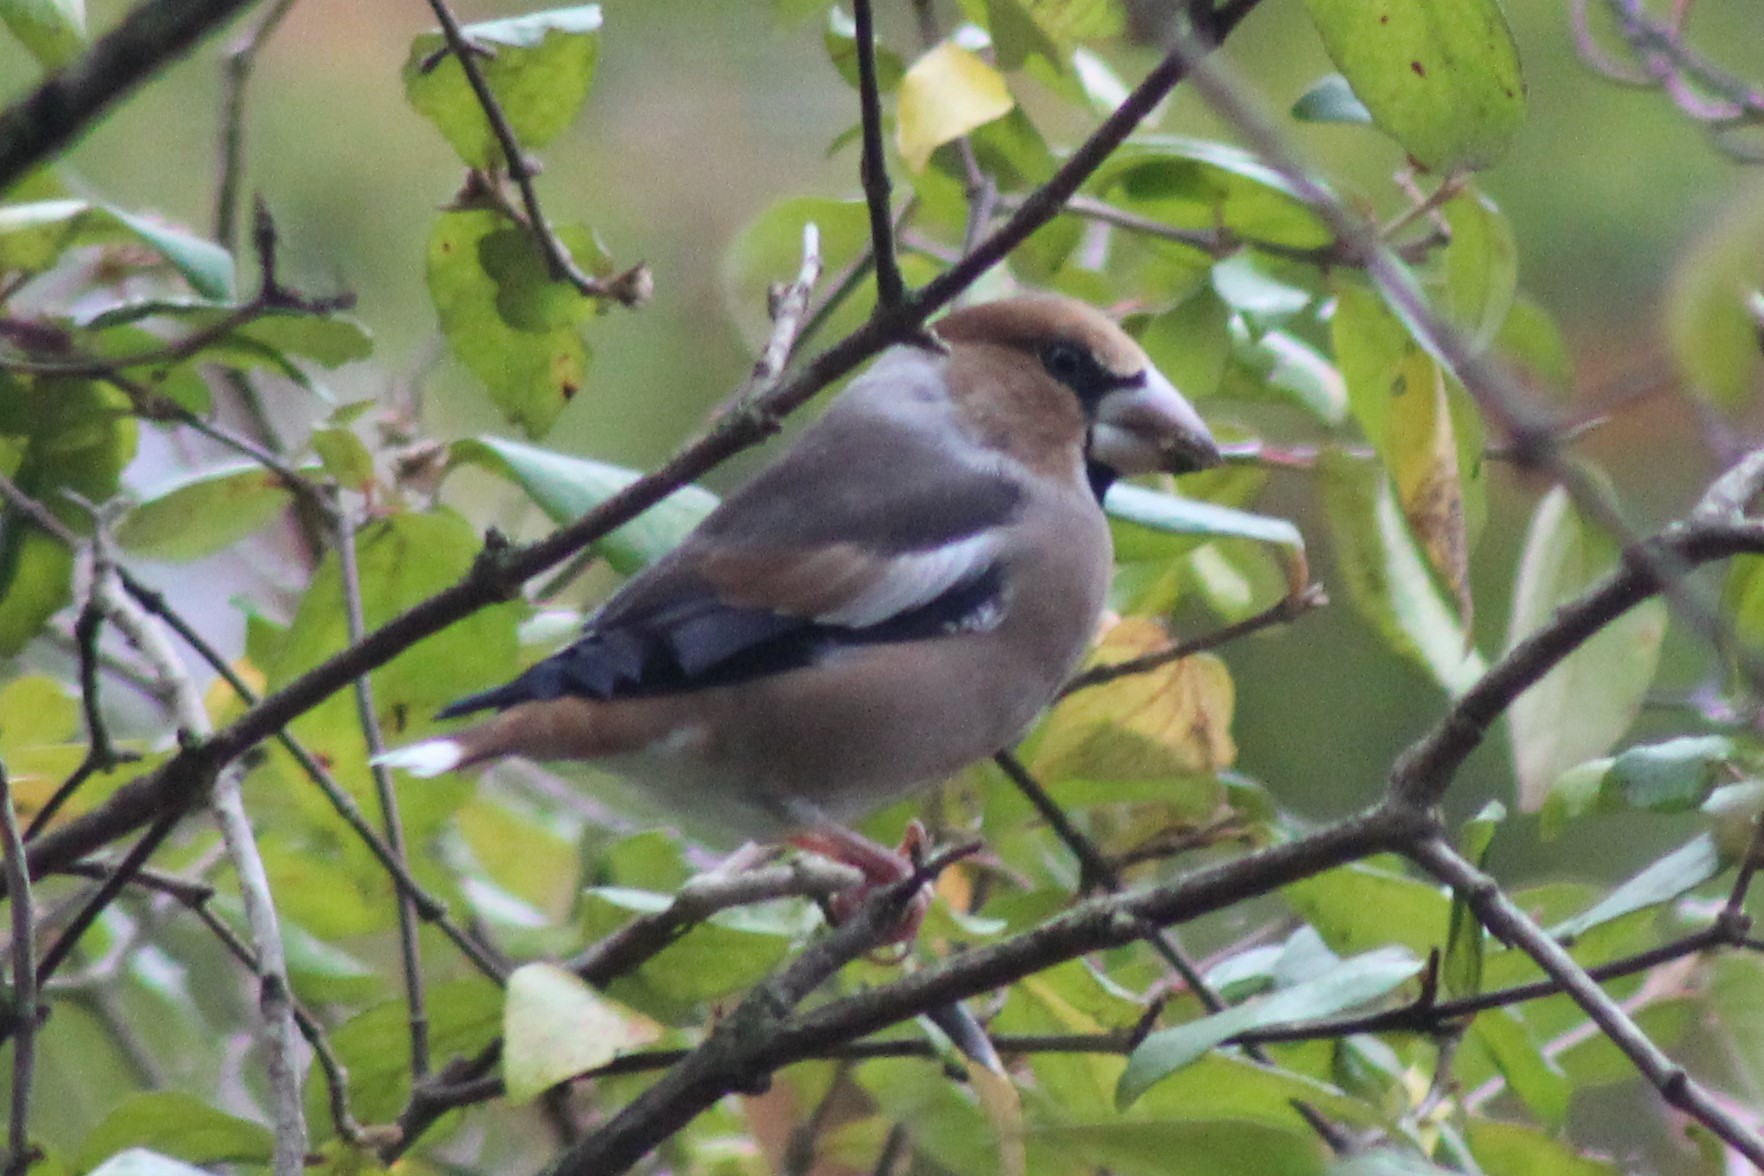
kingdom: Animalia
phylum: Chordata
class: Aves
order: Passeriformes
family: Fringillidae
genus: Coccothraustes
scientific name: Coccothraustes coccothraustes
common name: Hawfinch
